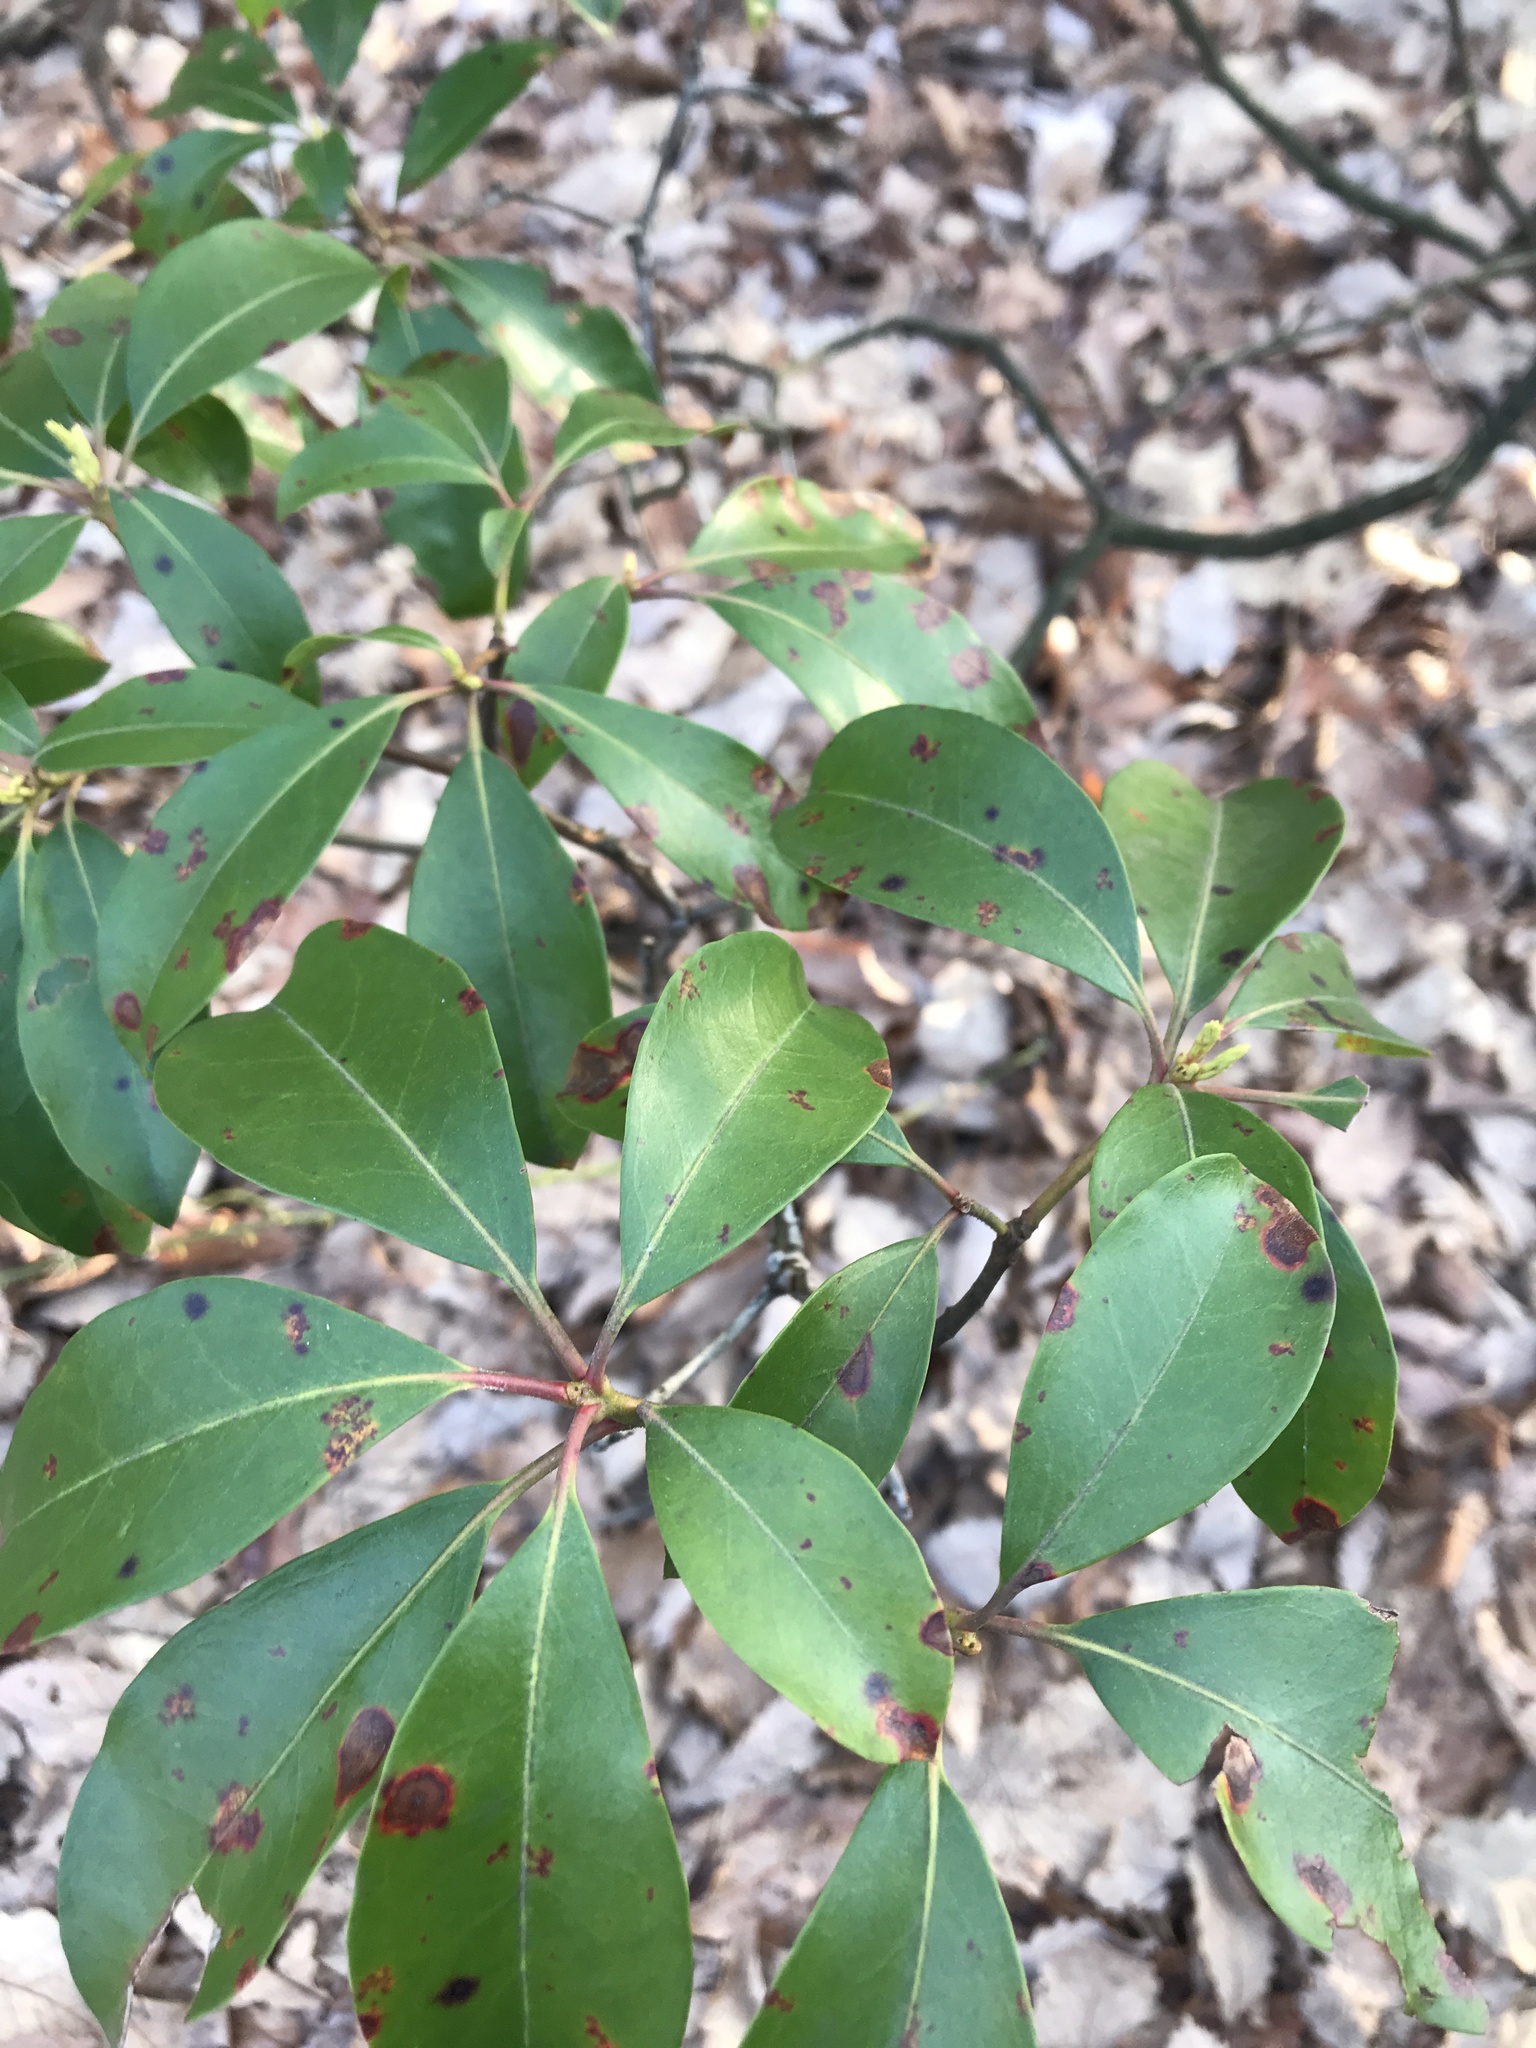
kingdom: Plantae
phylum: Tracheophyta
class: Magnoliopsida
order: Ericales
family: Ericaceae
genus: Kalmia
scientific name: Kalmia latifolia
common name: Mountain-laurel
